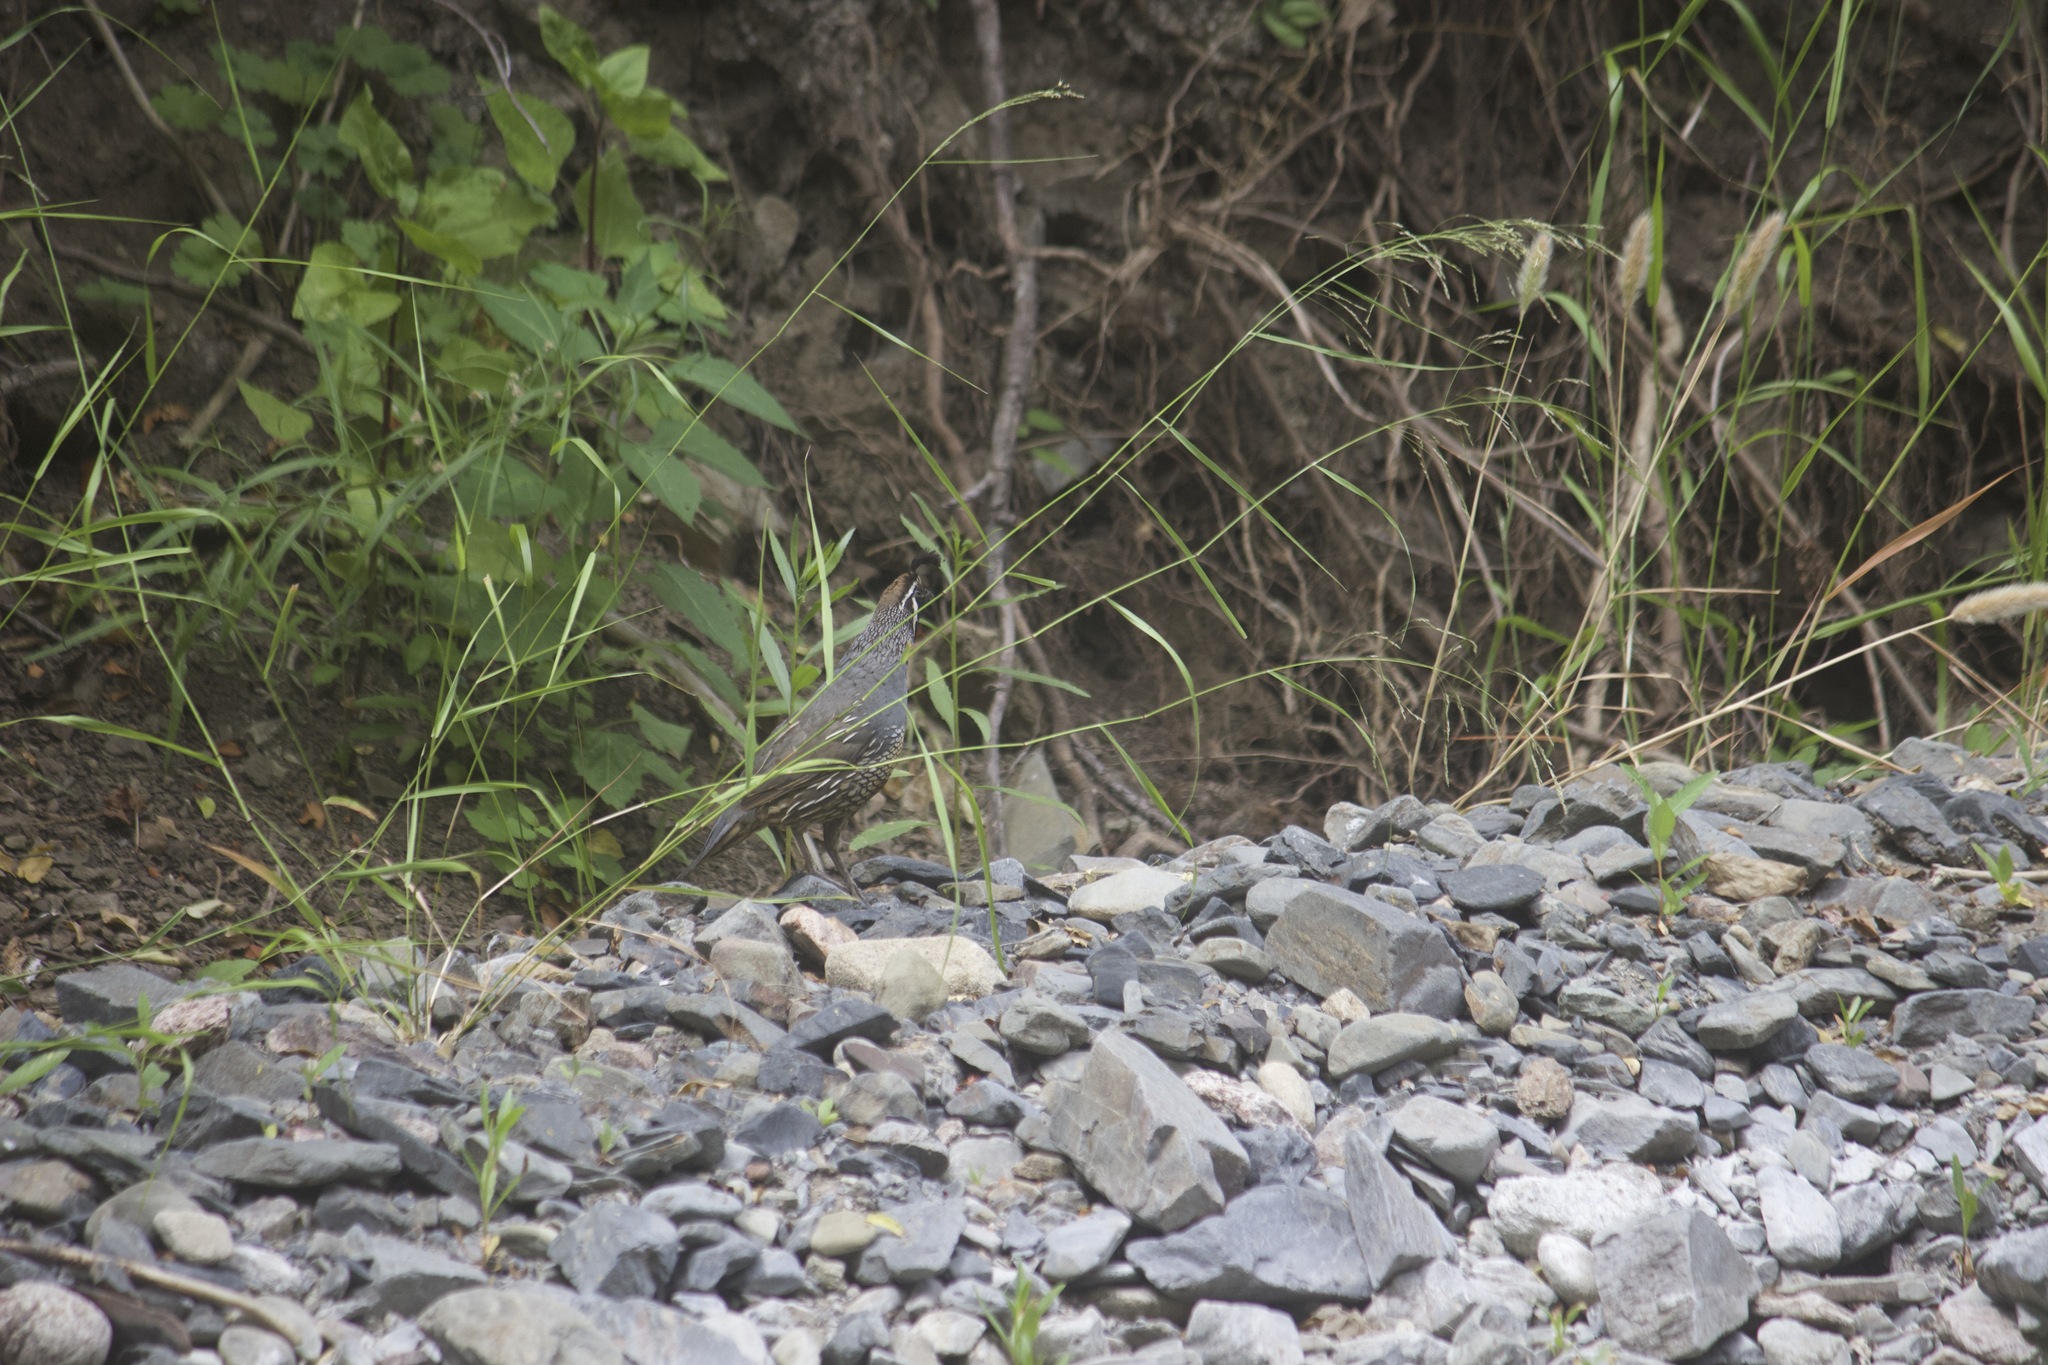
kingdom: Animalia
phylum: Chordata
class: Aves
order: Galliformes
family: Odontophoridae
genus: Callipepla
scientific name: Callipepla californica
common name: California quail
